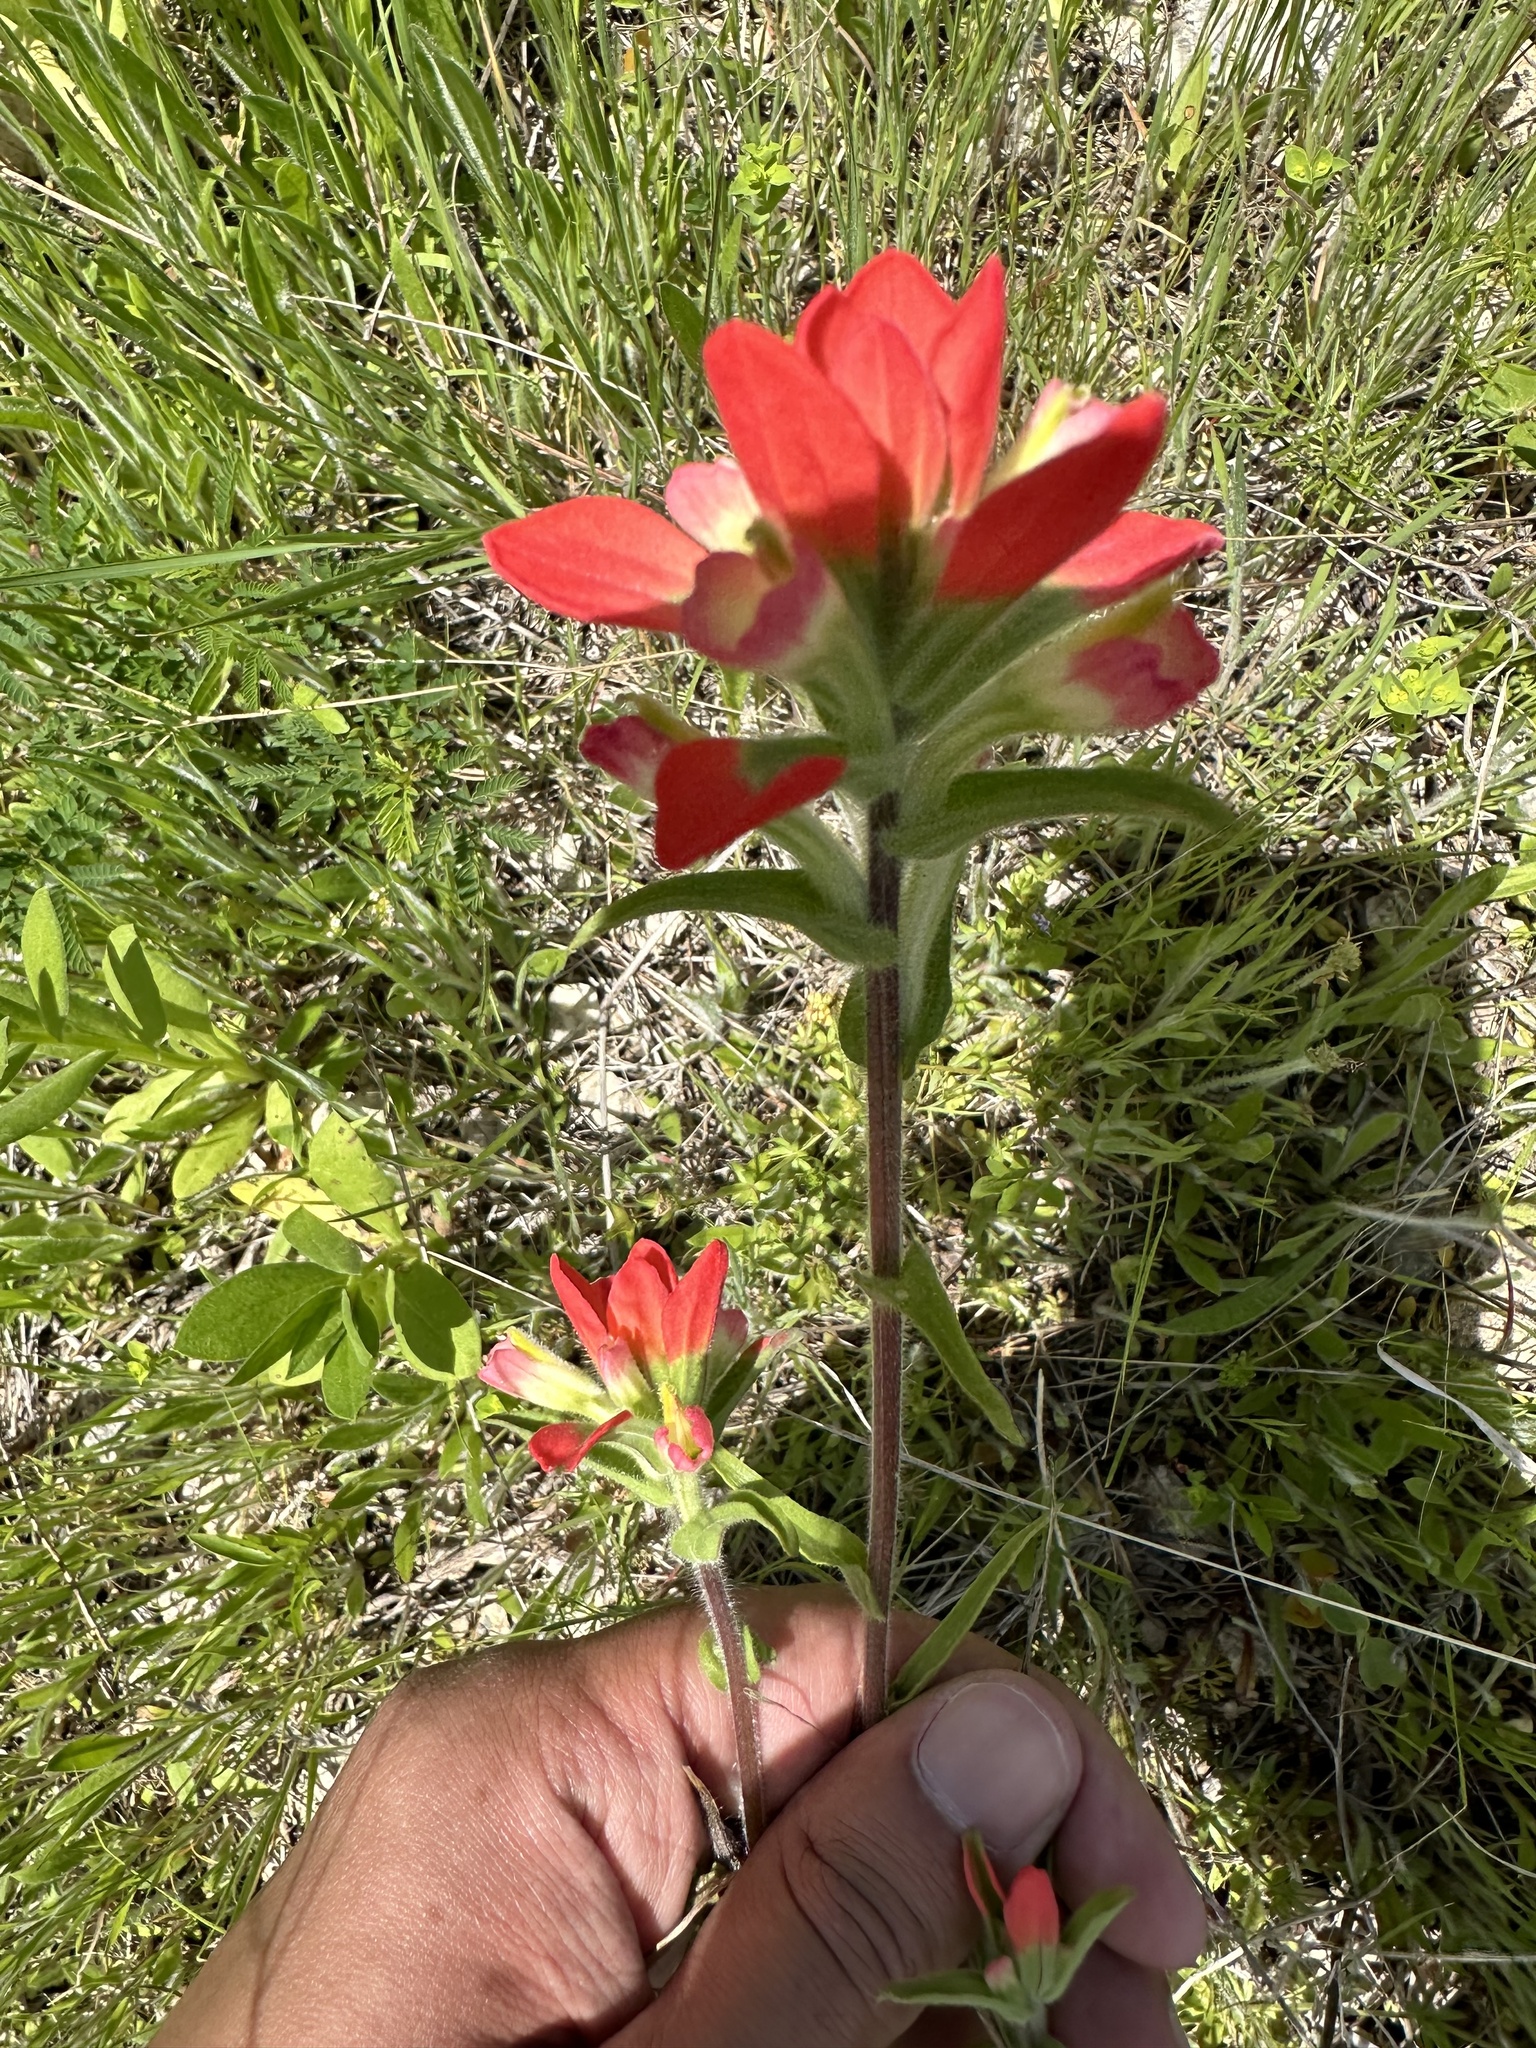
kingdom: Plantae
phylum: Tracheophyta
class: Magnoliopsida
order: Lamiales
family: Orobanchaceae
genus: Castilleja
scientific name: Castilleja indivisa
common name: Texas paintbrush
